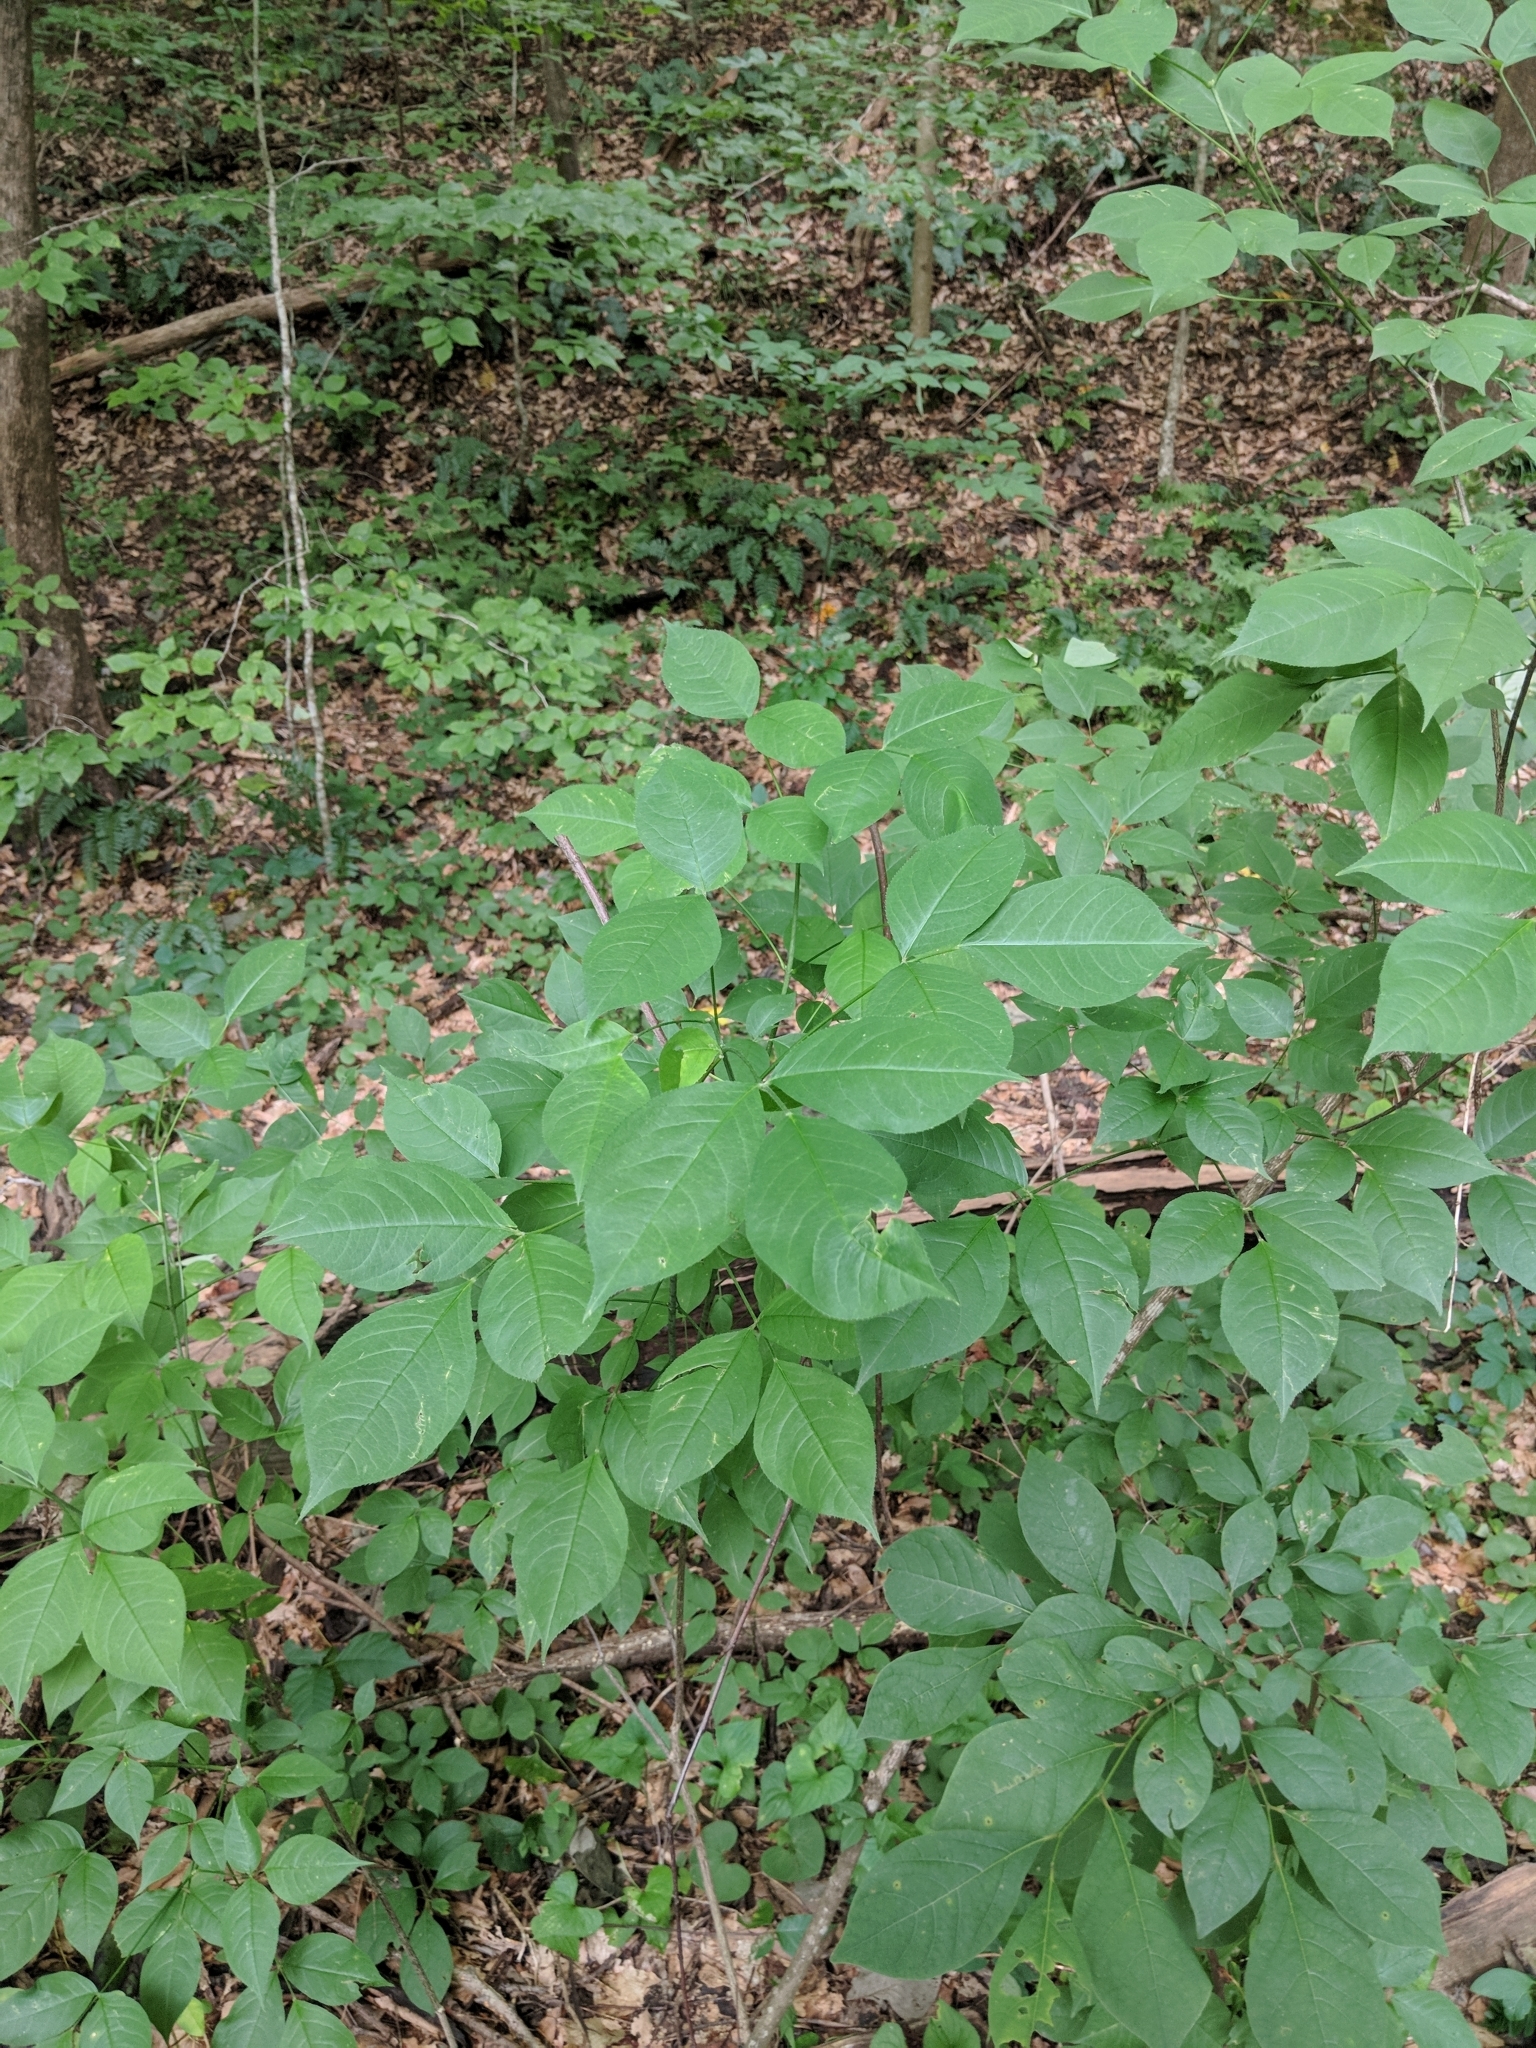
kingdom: Plantae
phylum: Tracheophyta
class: Magnoliopsida
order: Crossosomatales
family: Staphyleaceae
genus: Staphylea
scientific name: Staphylea trifolia
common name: American bladdernut
